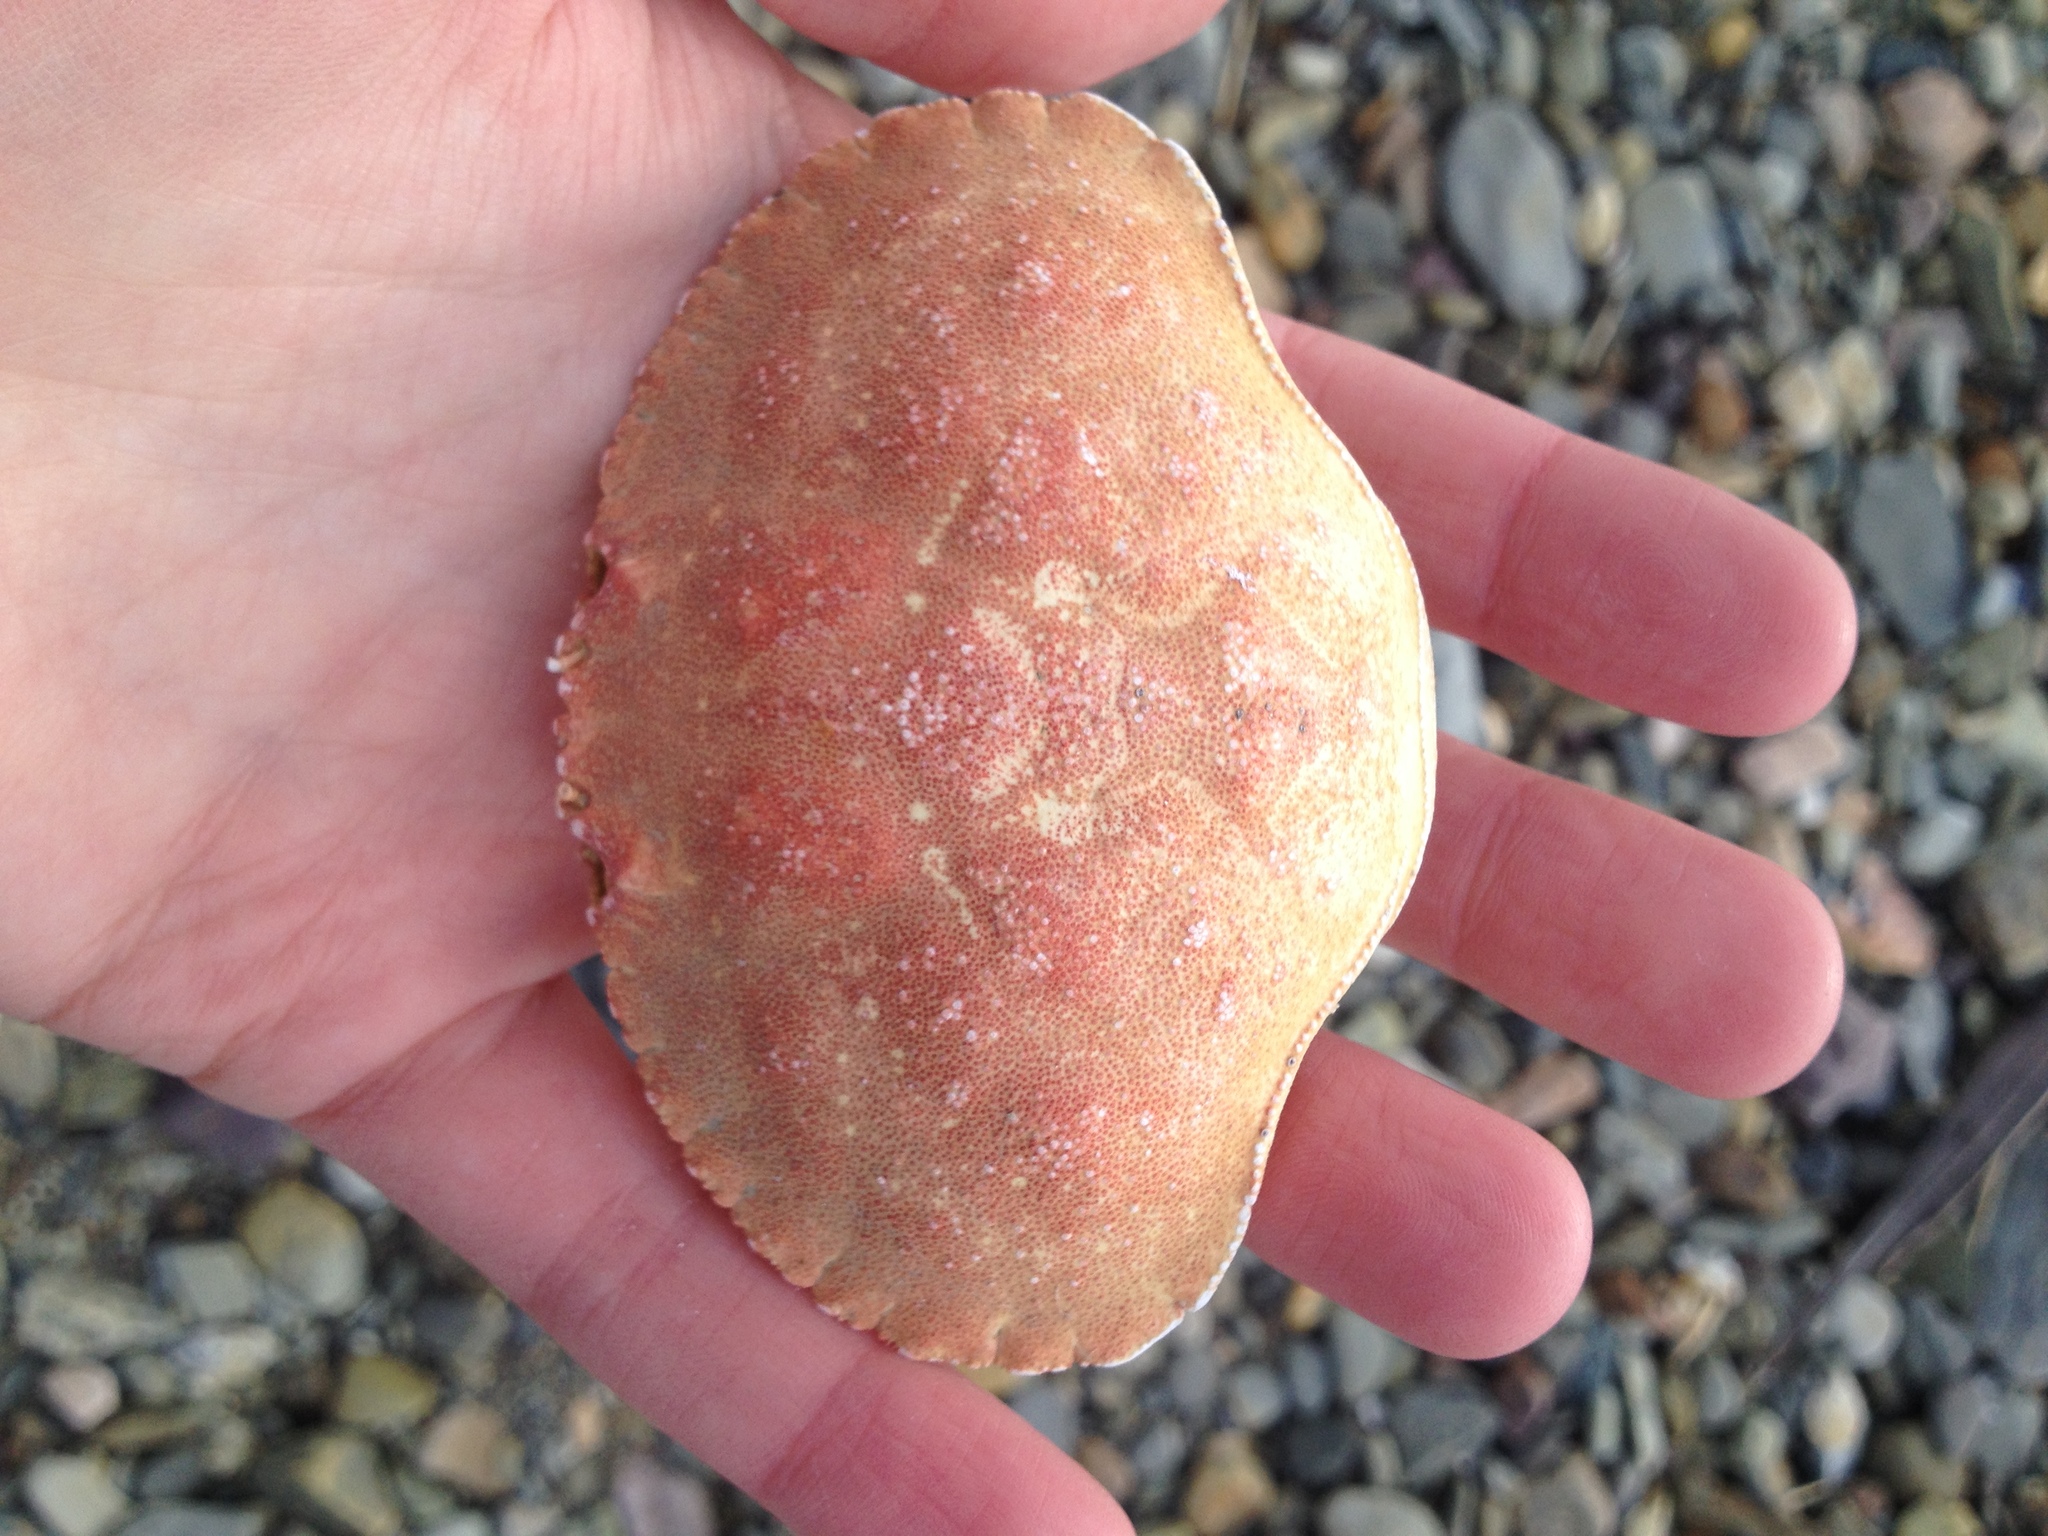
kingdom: Animalia
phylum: Arthropoda
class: Malacostraca
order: Decapoda
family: Cancridae
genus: Cancer
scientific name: Cancer borealis
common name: Jonah crab
